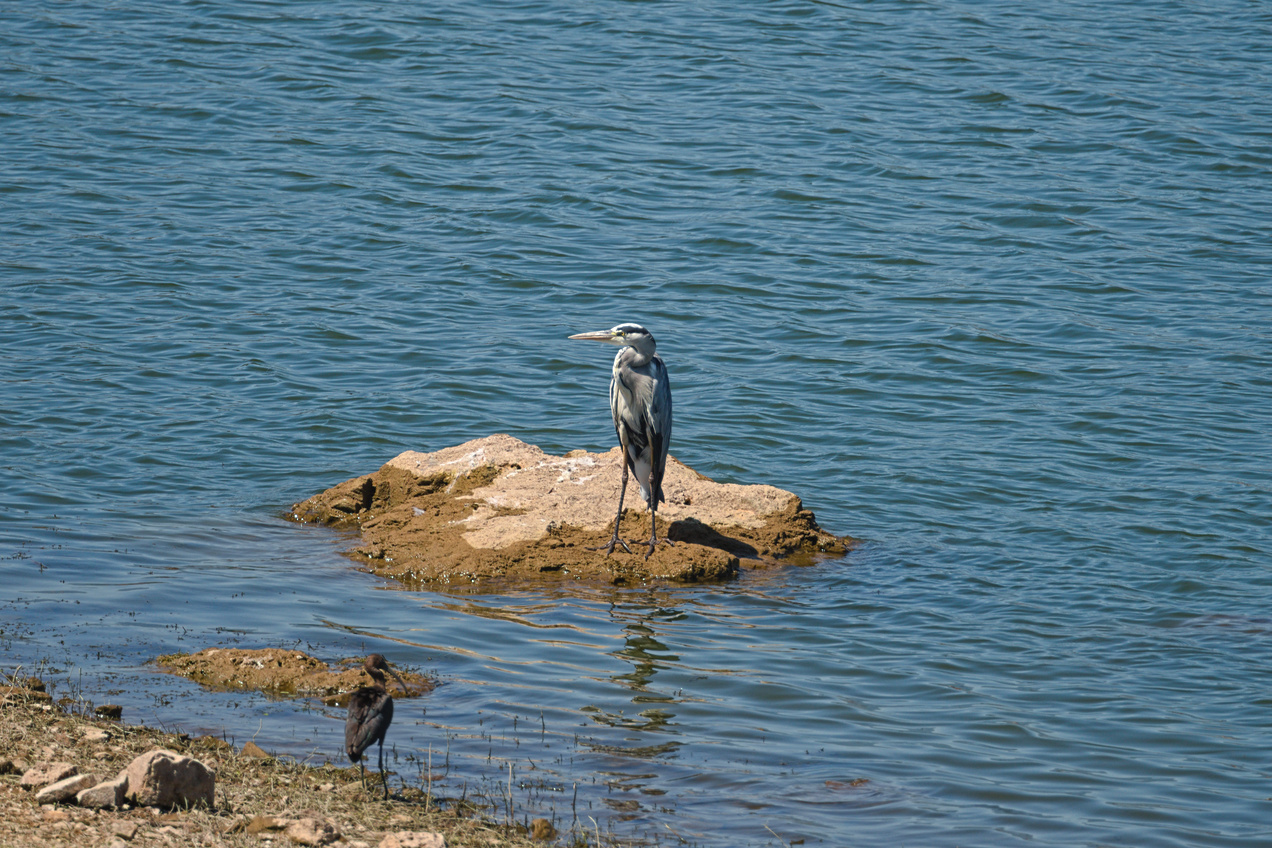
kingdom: Animalia
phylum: Chordata
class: Aves
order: Pelecaniformes
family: Threskiornithidae
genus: Plegadis
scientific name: Plegadis falcinellus
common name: Glossy ibis
